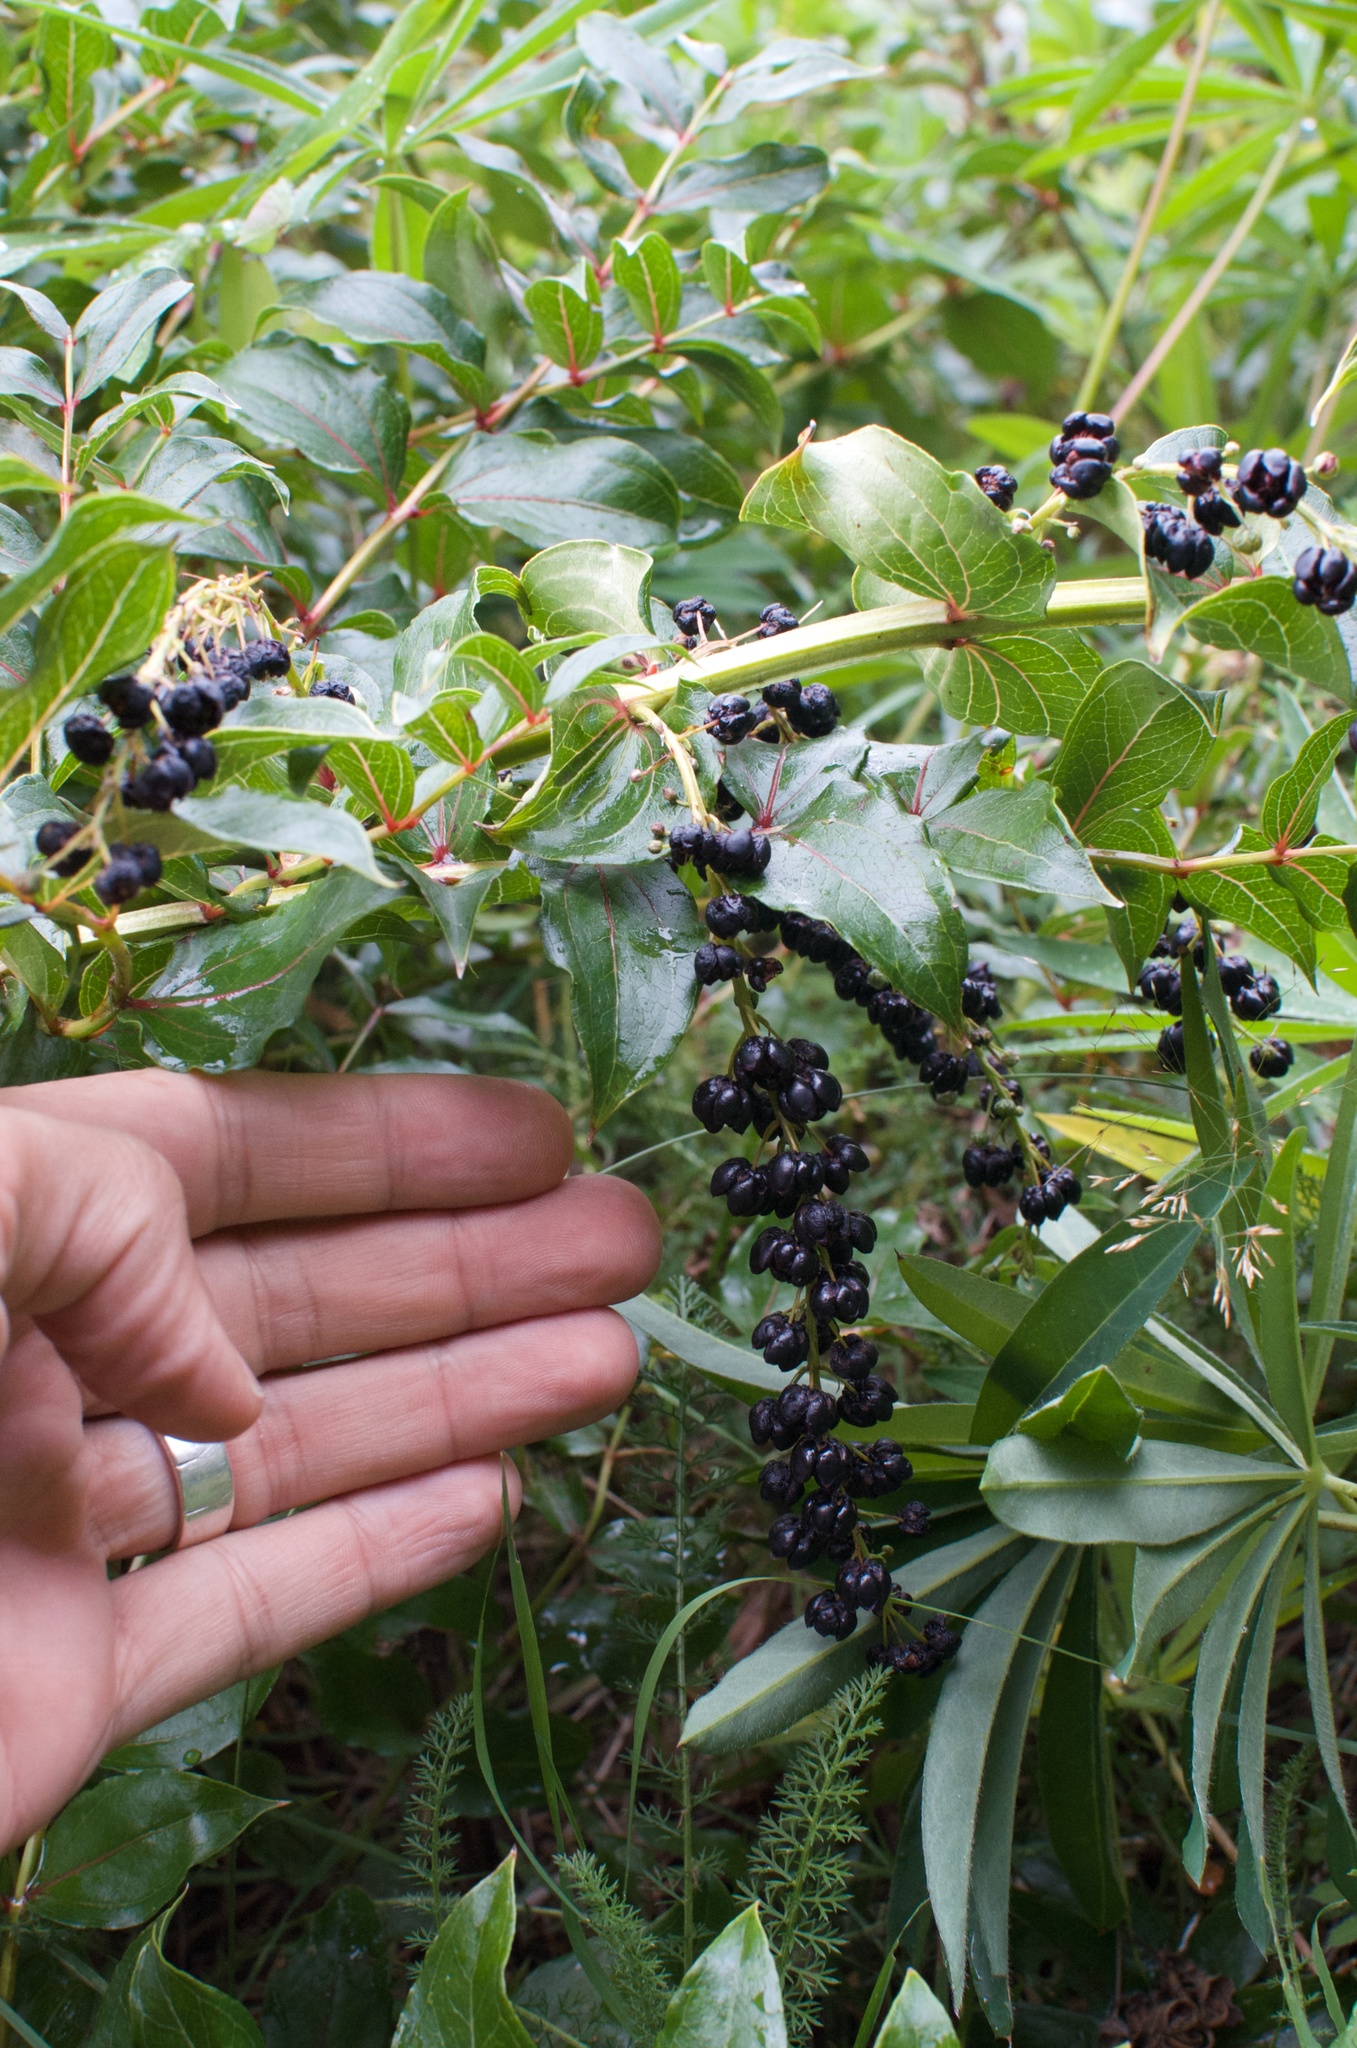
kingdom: Plantae
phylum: Tracheophyta
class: Magnoliopsida
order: Cucurbitales
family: Coriariaceae
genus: Coriaria
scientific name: Coriaria arborea
